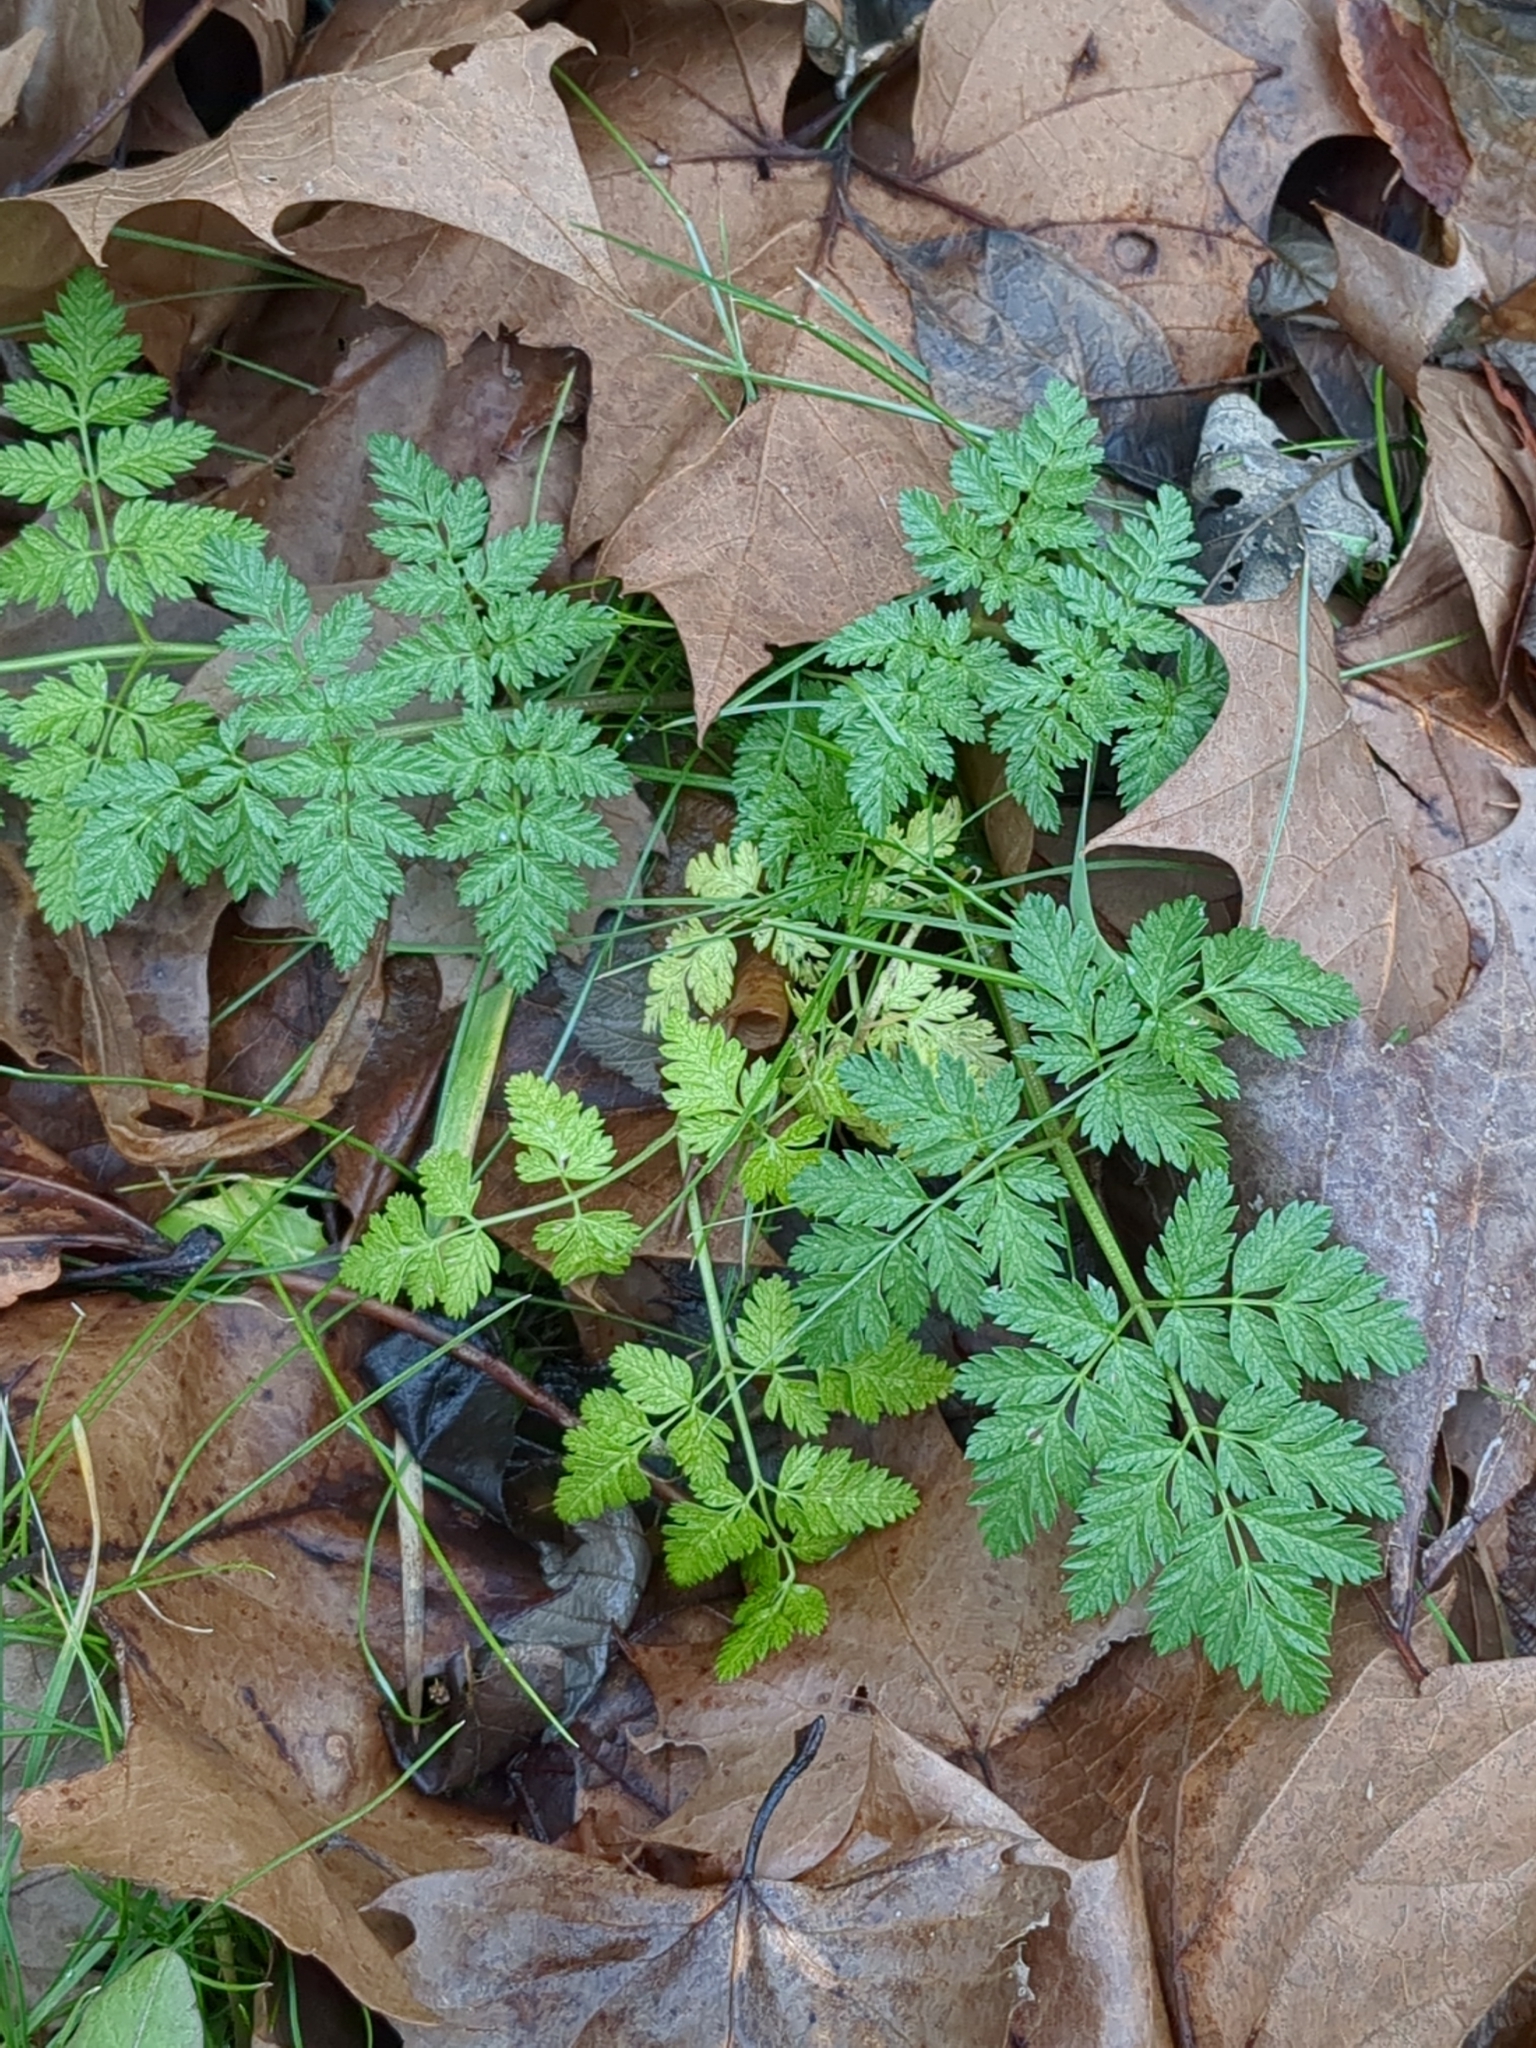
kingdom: Plantae
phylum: Tracheophyta
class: Magnoliopsida
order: Apiales
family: Apiaceae
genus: Conium
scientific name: Conium maculatum
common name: Hemlock
